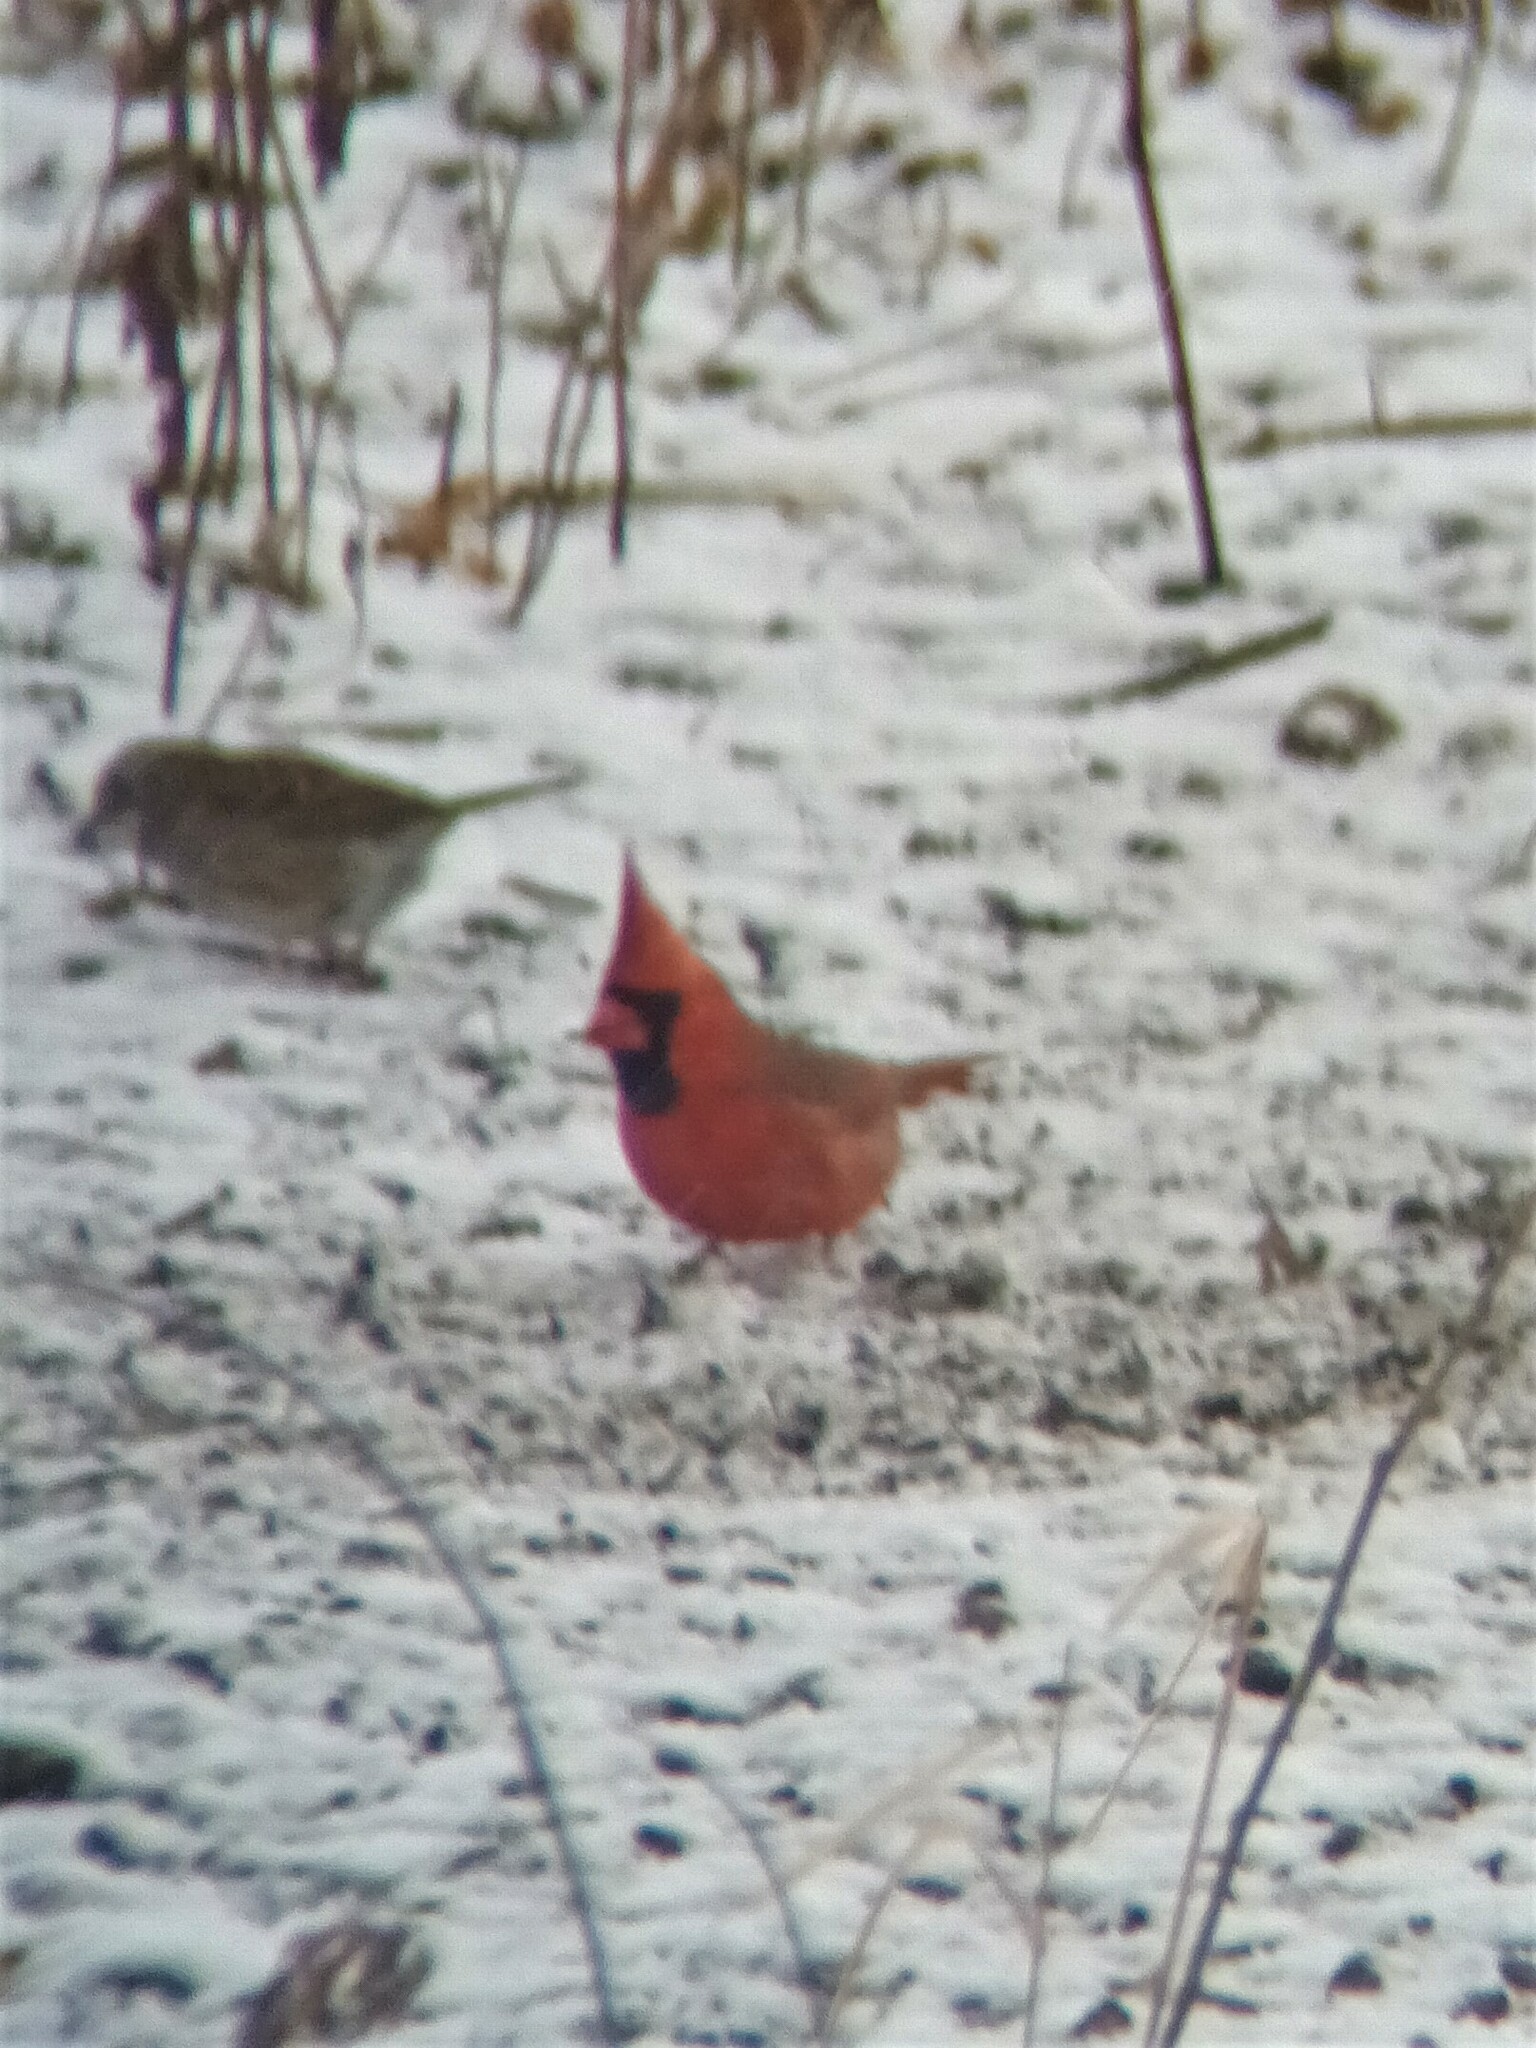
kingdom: Animalia
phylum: Chordata
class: Aves
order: Passeriformes
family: Cardinalidae
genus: Cardinalis
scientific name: Cardinalis cardinalis
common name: Northern cardinal
